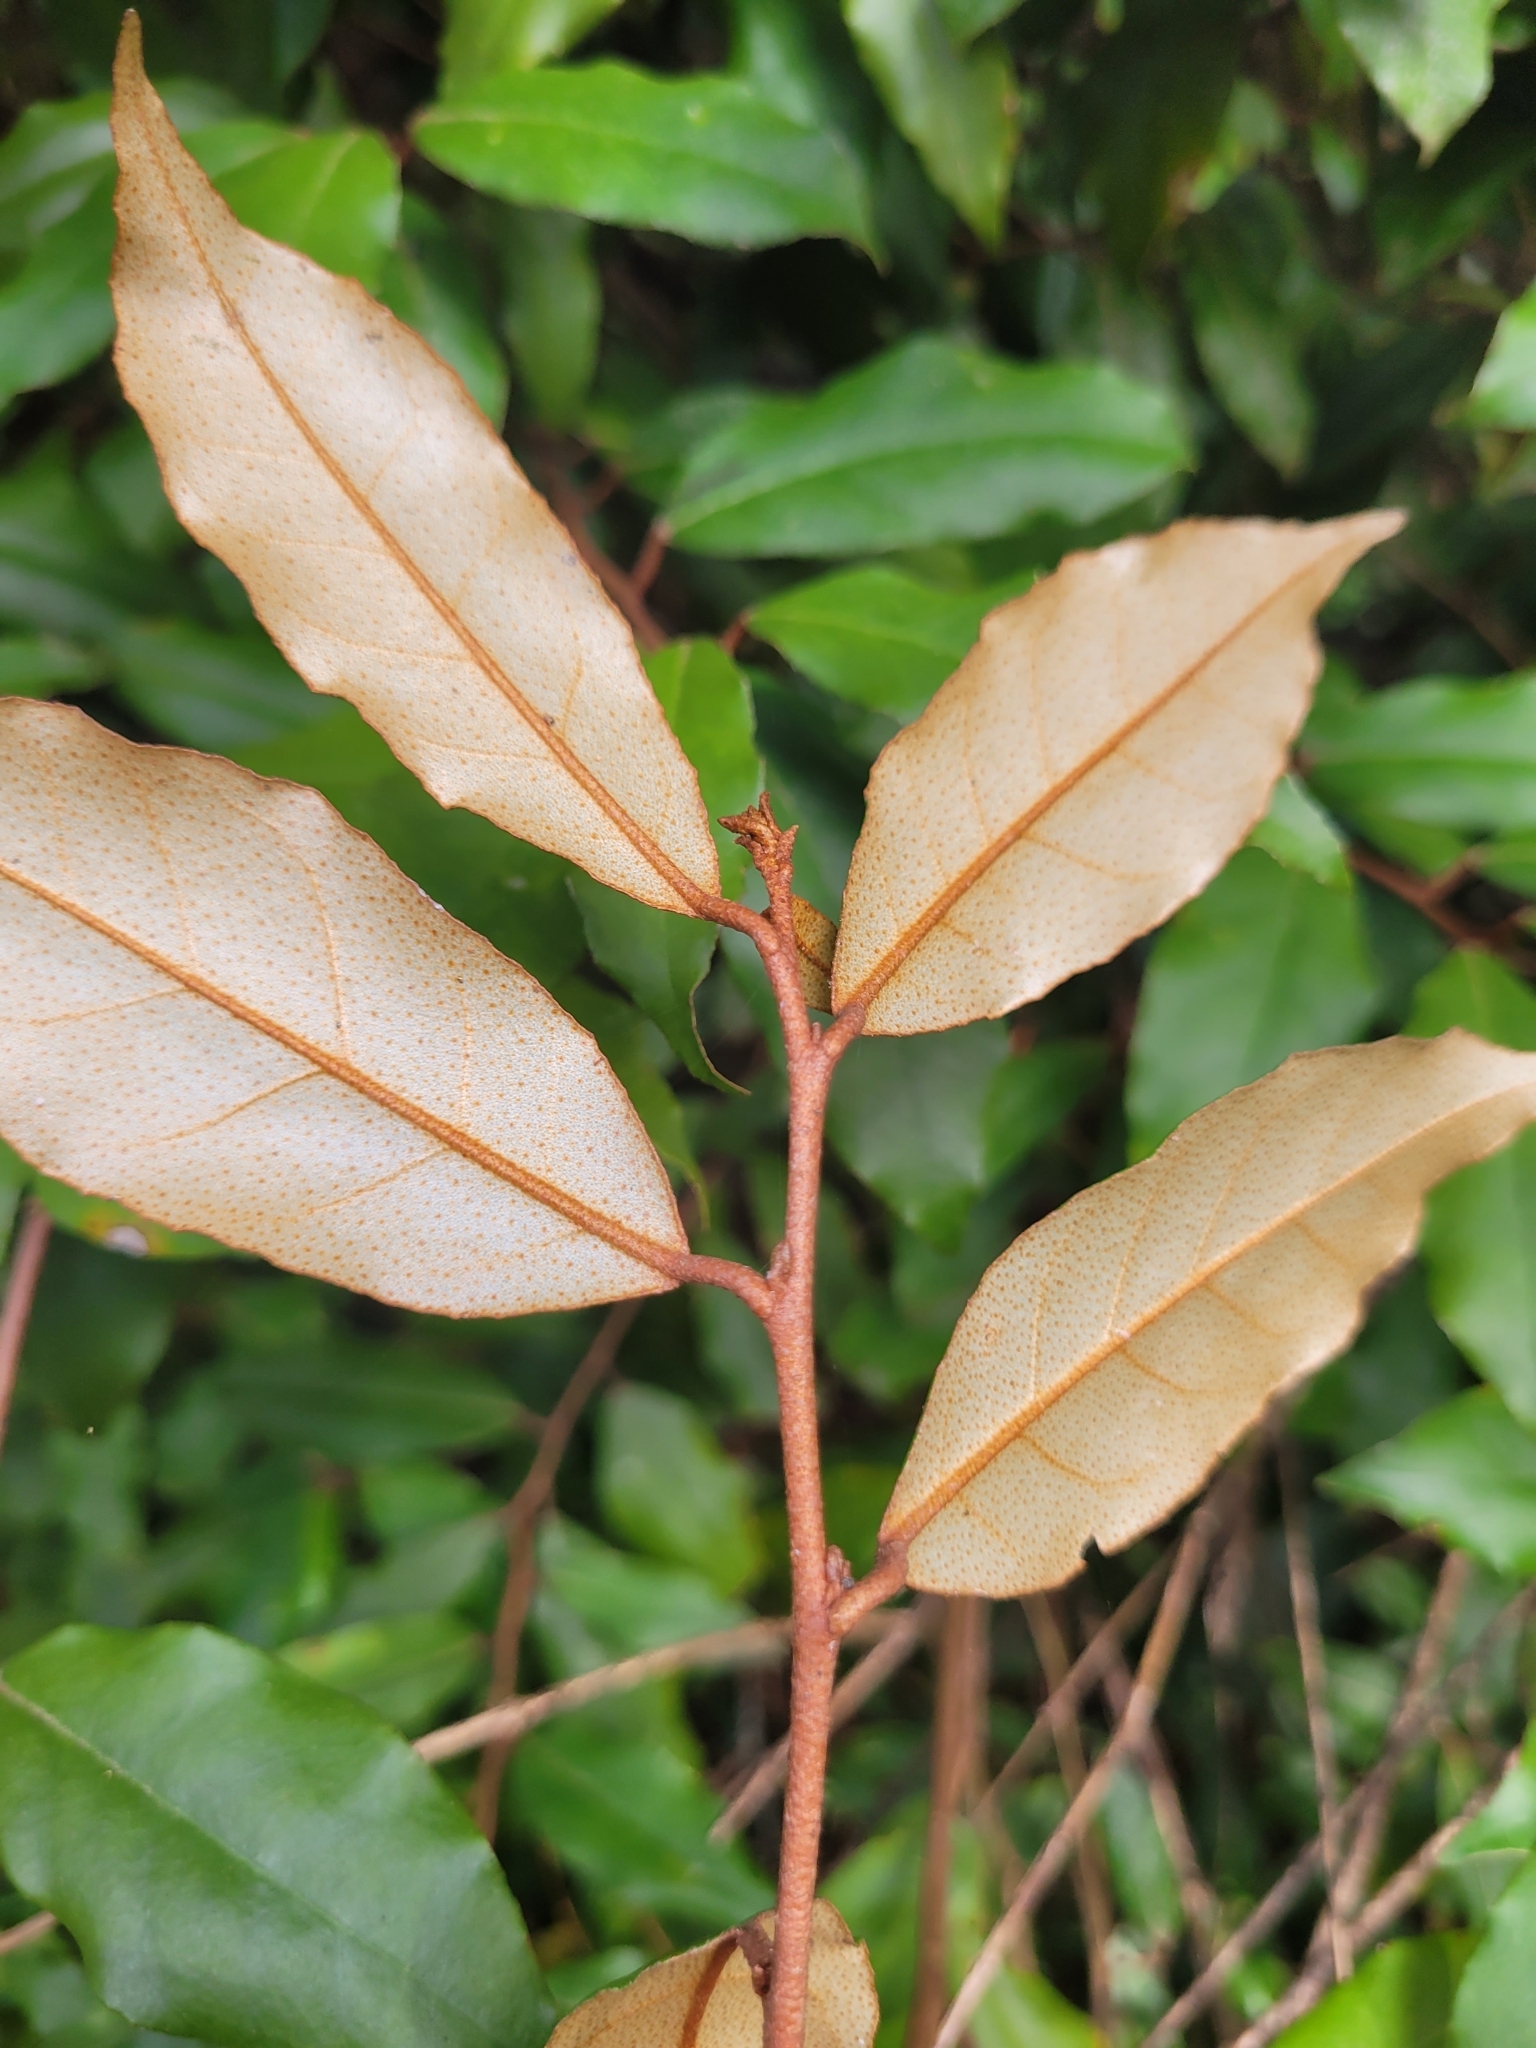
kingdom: Plantae
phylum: Tracheophyta
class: Magnoliopsida
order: Rosales
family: Elaeagnaceae
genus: Elaeagnus
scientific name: Elaeagnus reflexa
